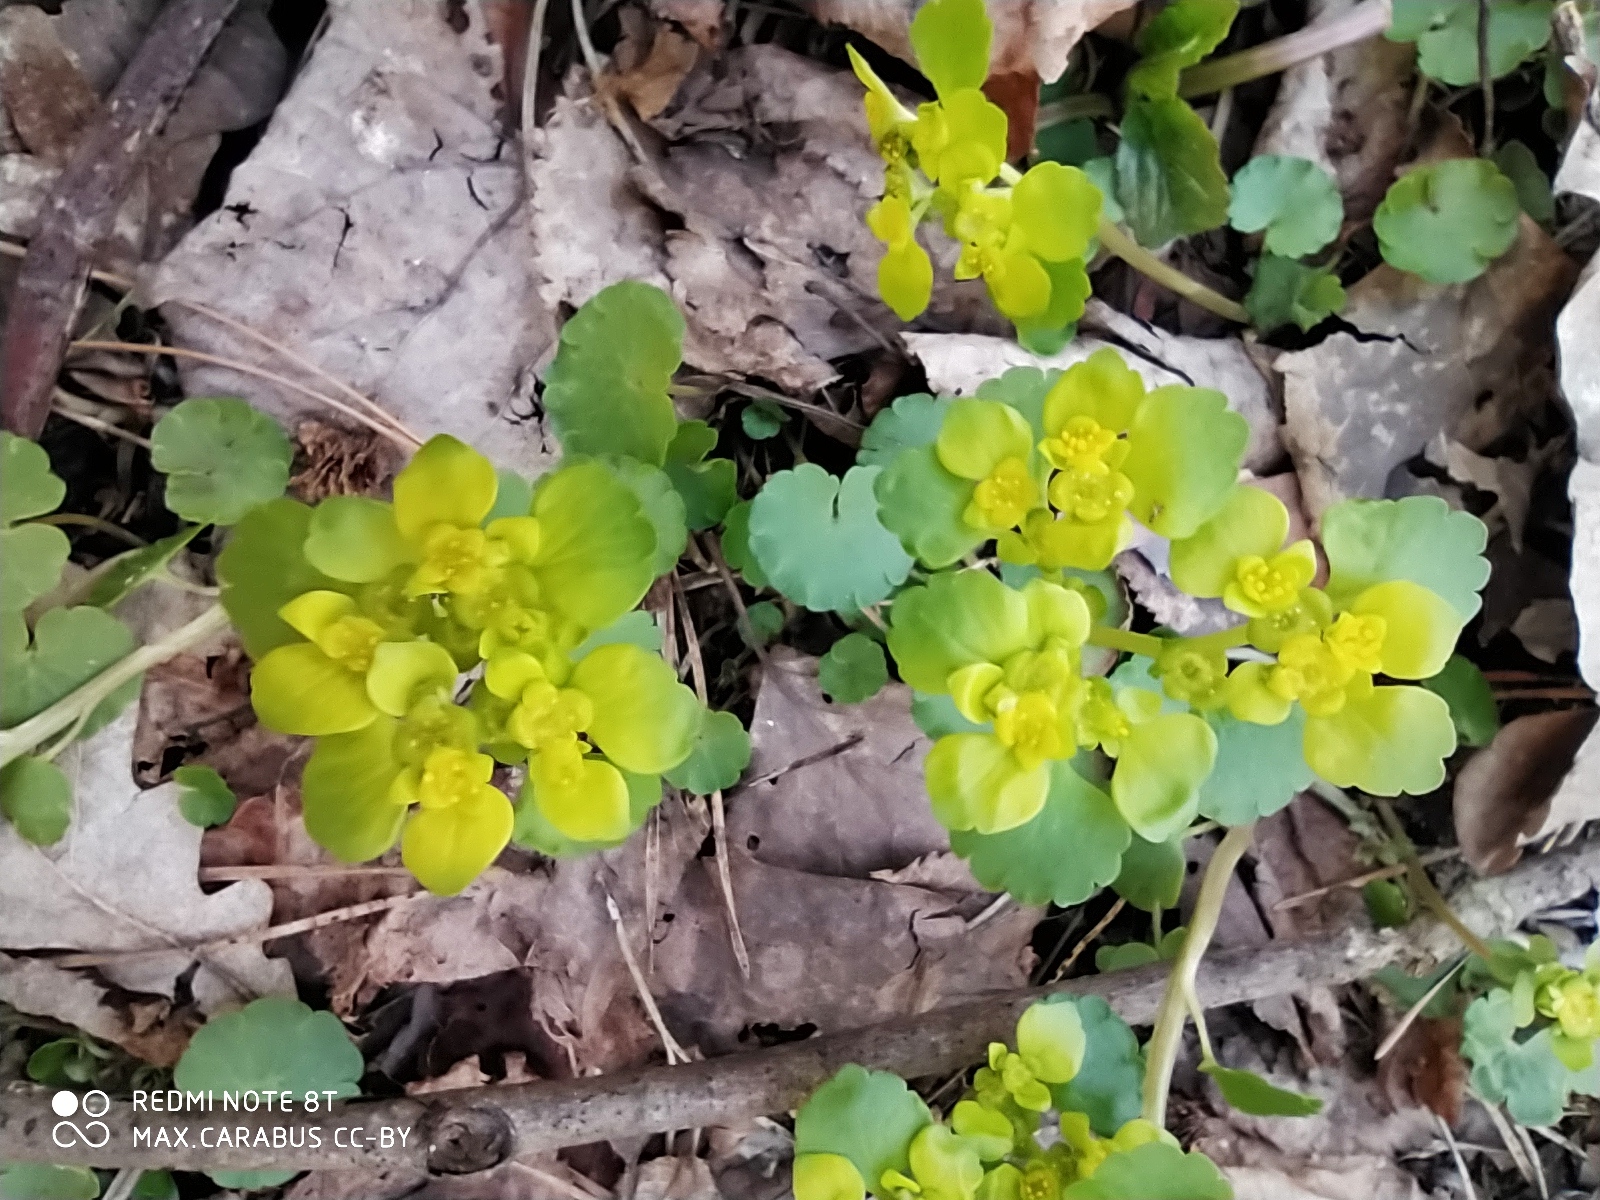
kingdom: Plantae
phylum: Tracheophyta
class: Magnoliopsida
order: Saxifragales
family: Saxifragaceae
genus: Chrysosplenium
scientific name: Chrysosplenium alternifolium
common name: Alternate-leaved golden-saxifrage
